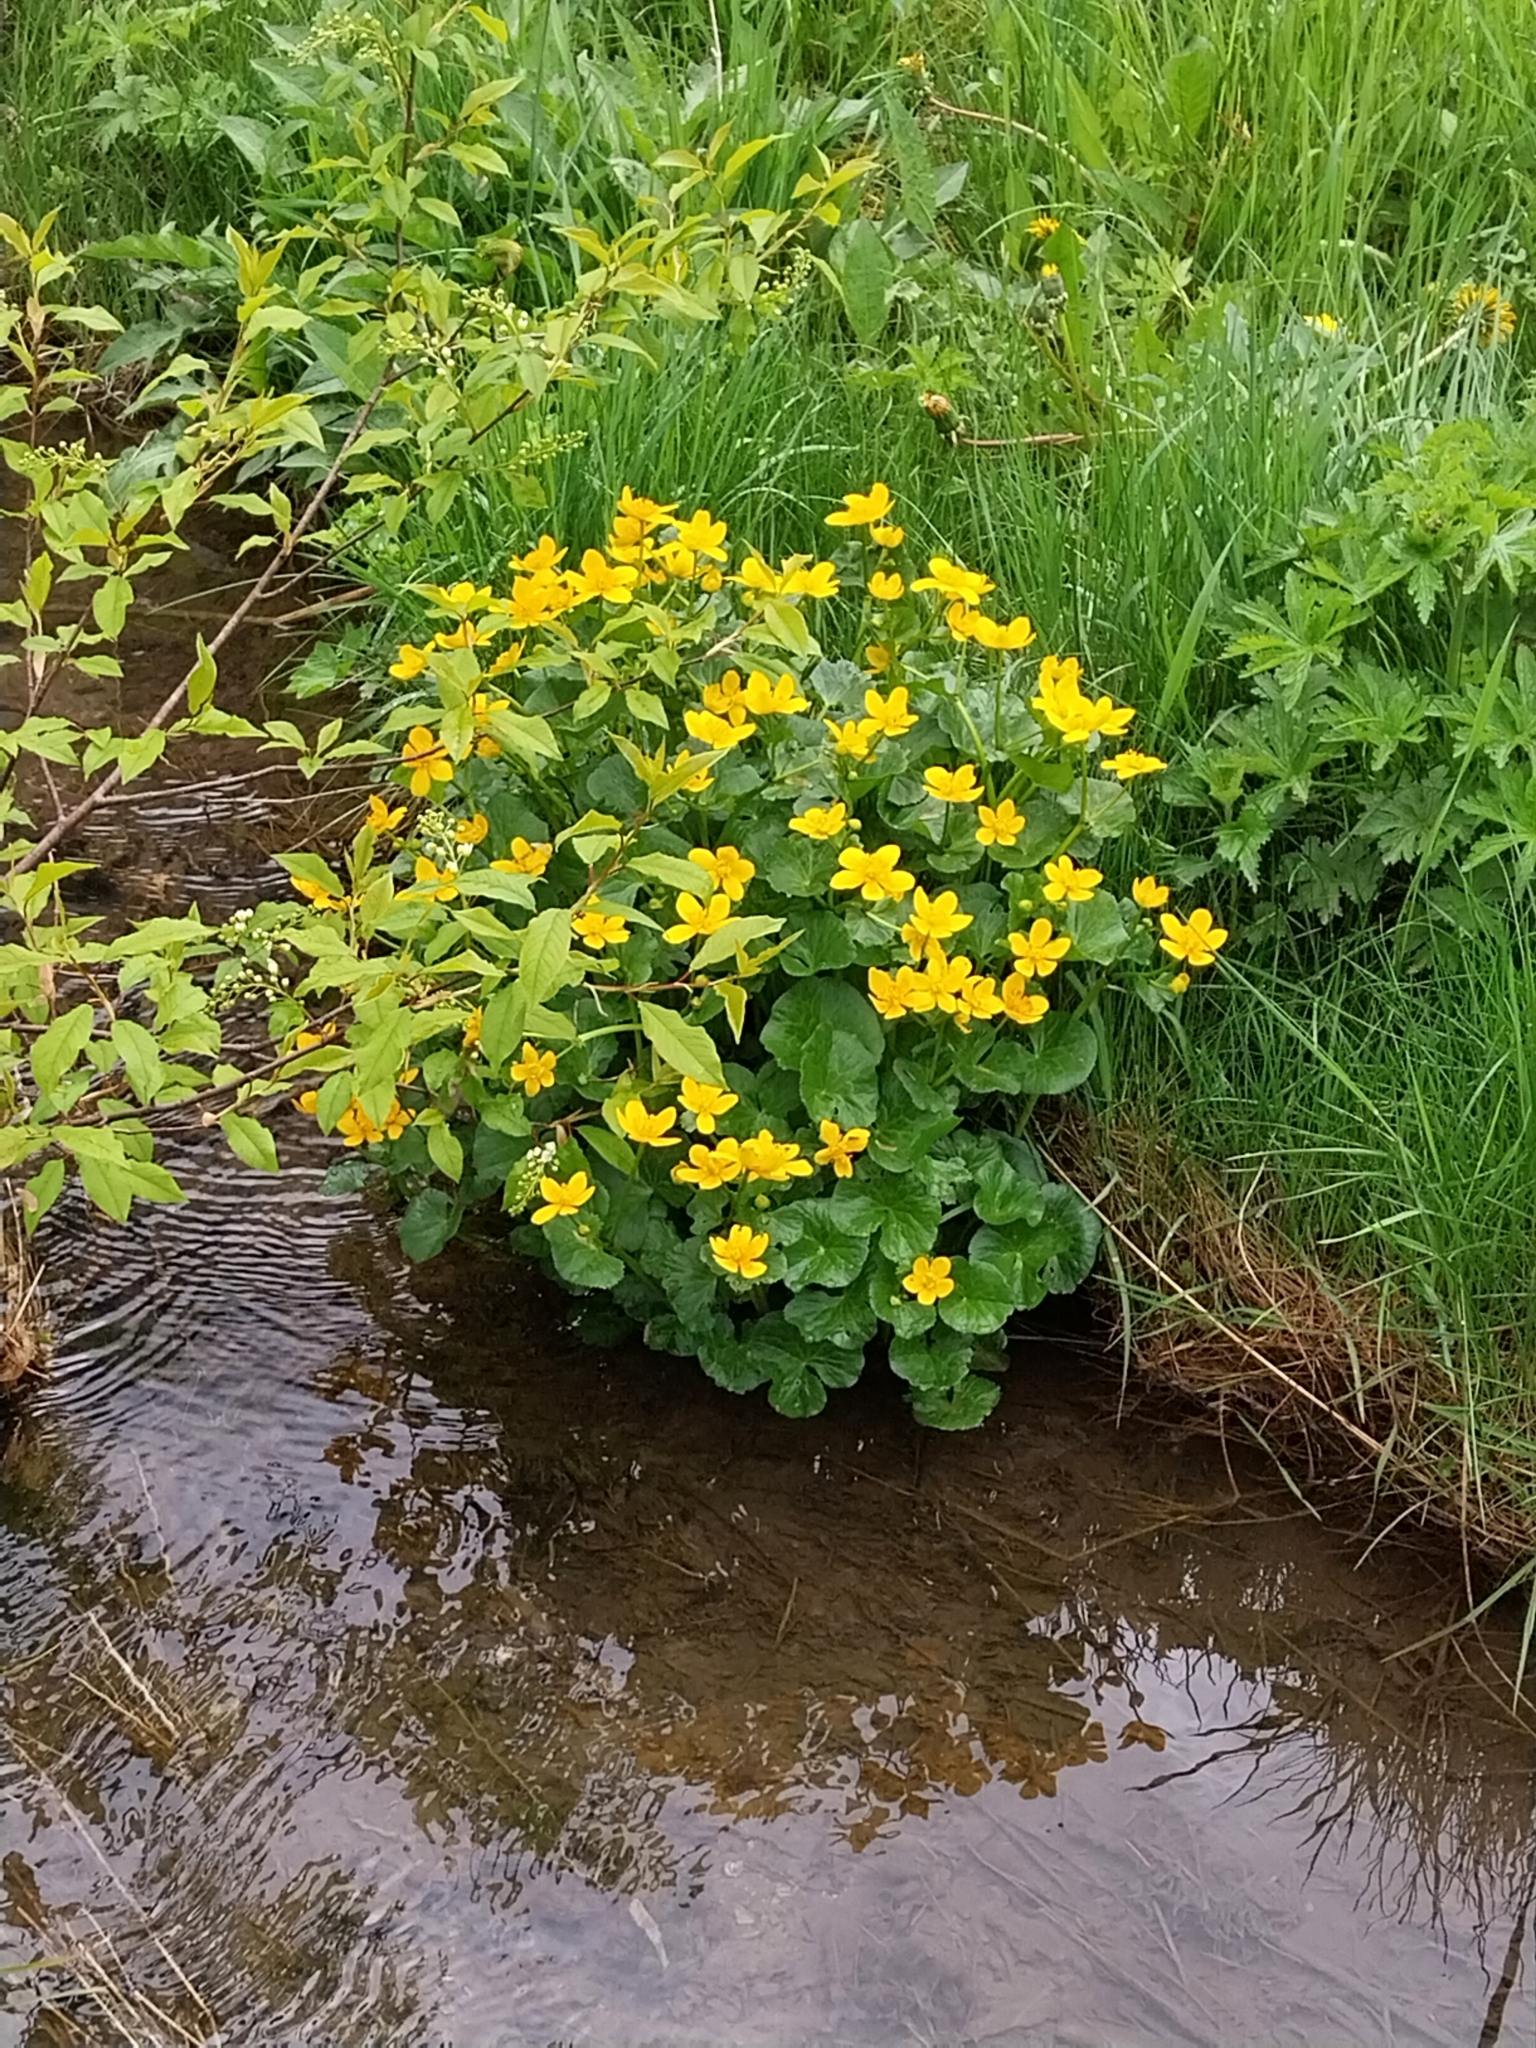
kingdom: Plantae
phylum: Tracheophyta
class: Magnoliopsida
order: Ranunculales
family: Ranunculaceae
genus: Caltha
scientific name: Caltha palustris
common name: Marsh marigold
